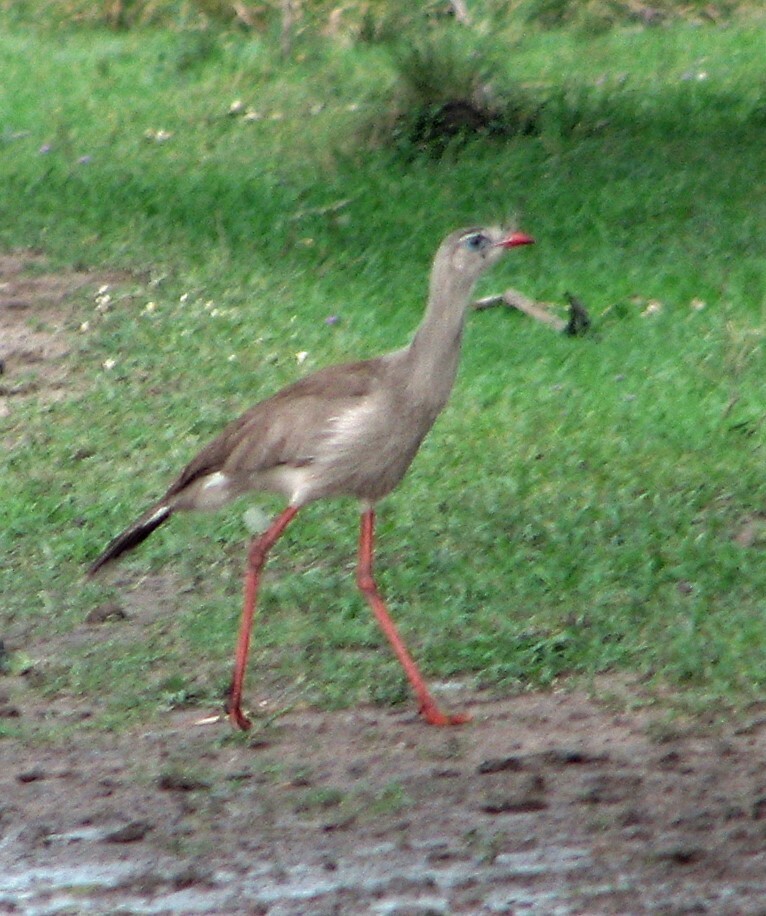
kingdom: Animalia
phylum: Chordata
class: Aves
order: Cariamiformes
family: Cariamidae
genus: Cariama
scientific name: Cariama cristata
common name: Red-legged seriema
